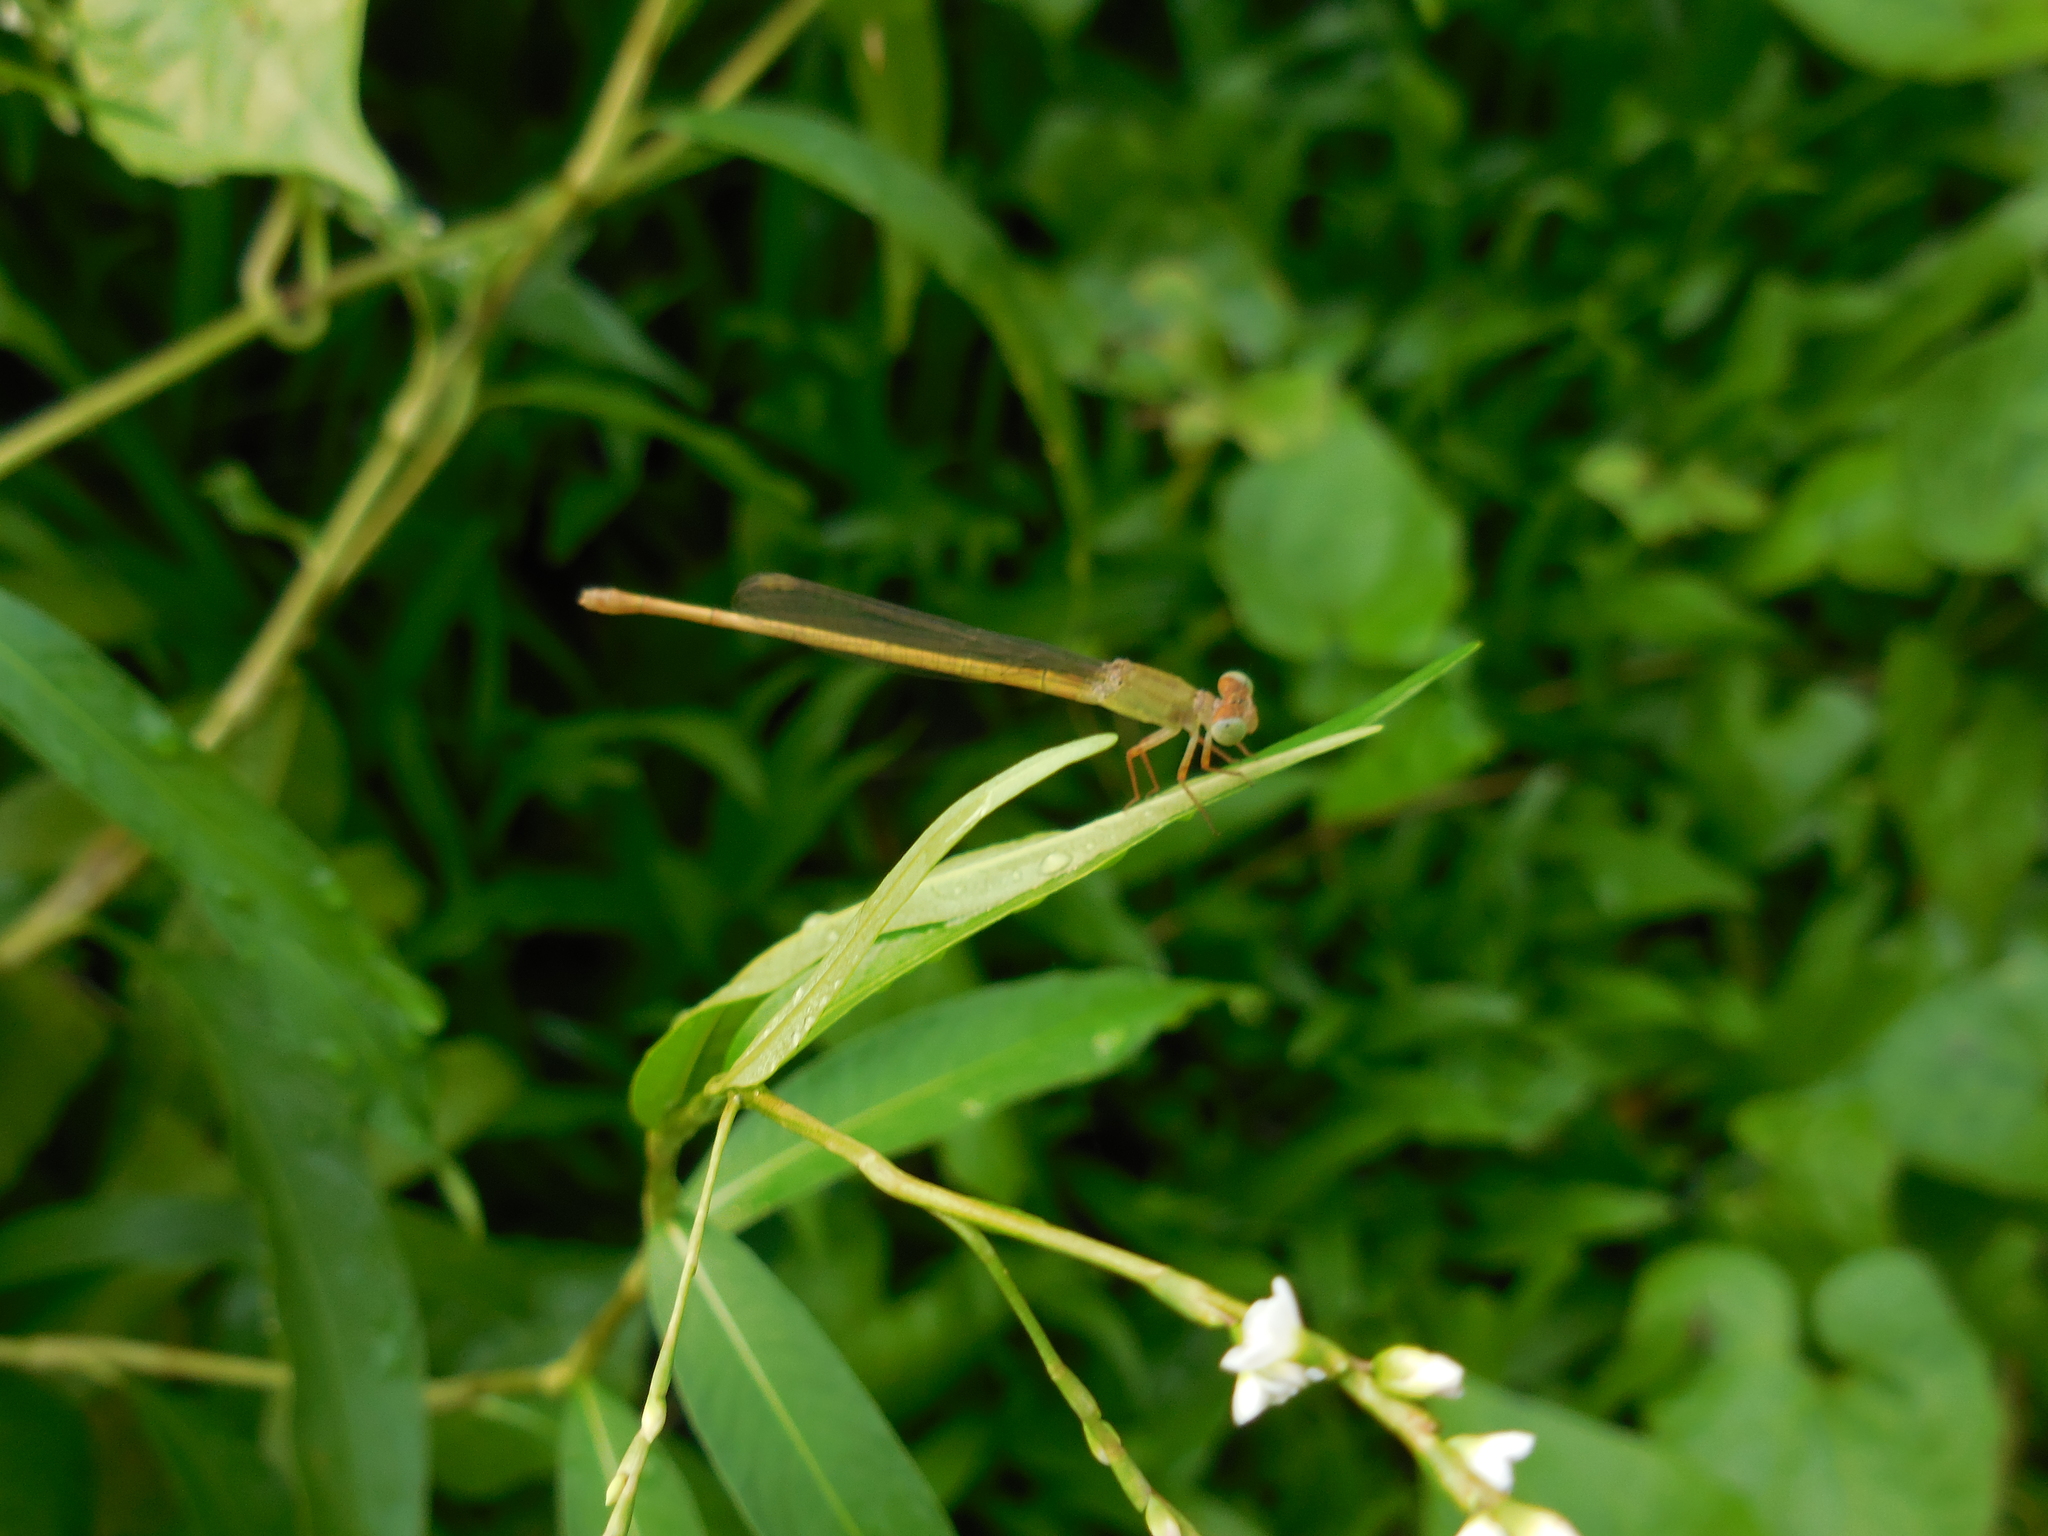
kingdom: Animalia
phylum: Arthropoda
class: Insecta
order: Odonata
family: Coenagrionidae
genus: Ceriagrion
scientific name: Ceriagrion coromandelianum
